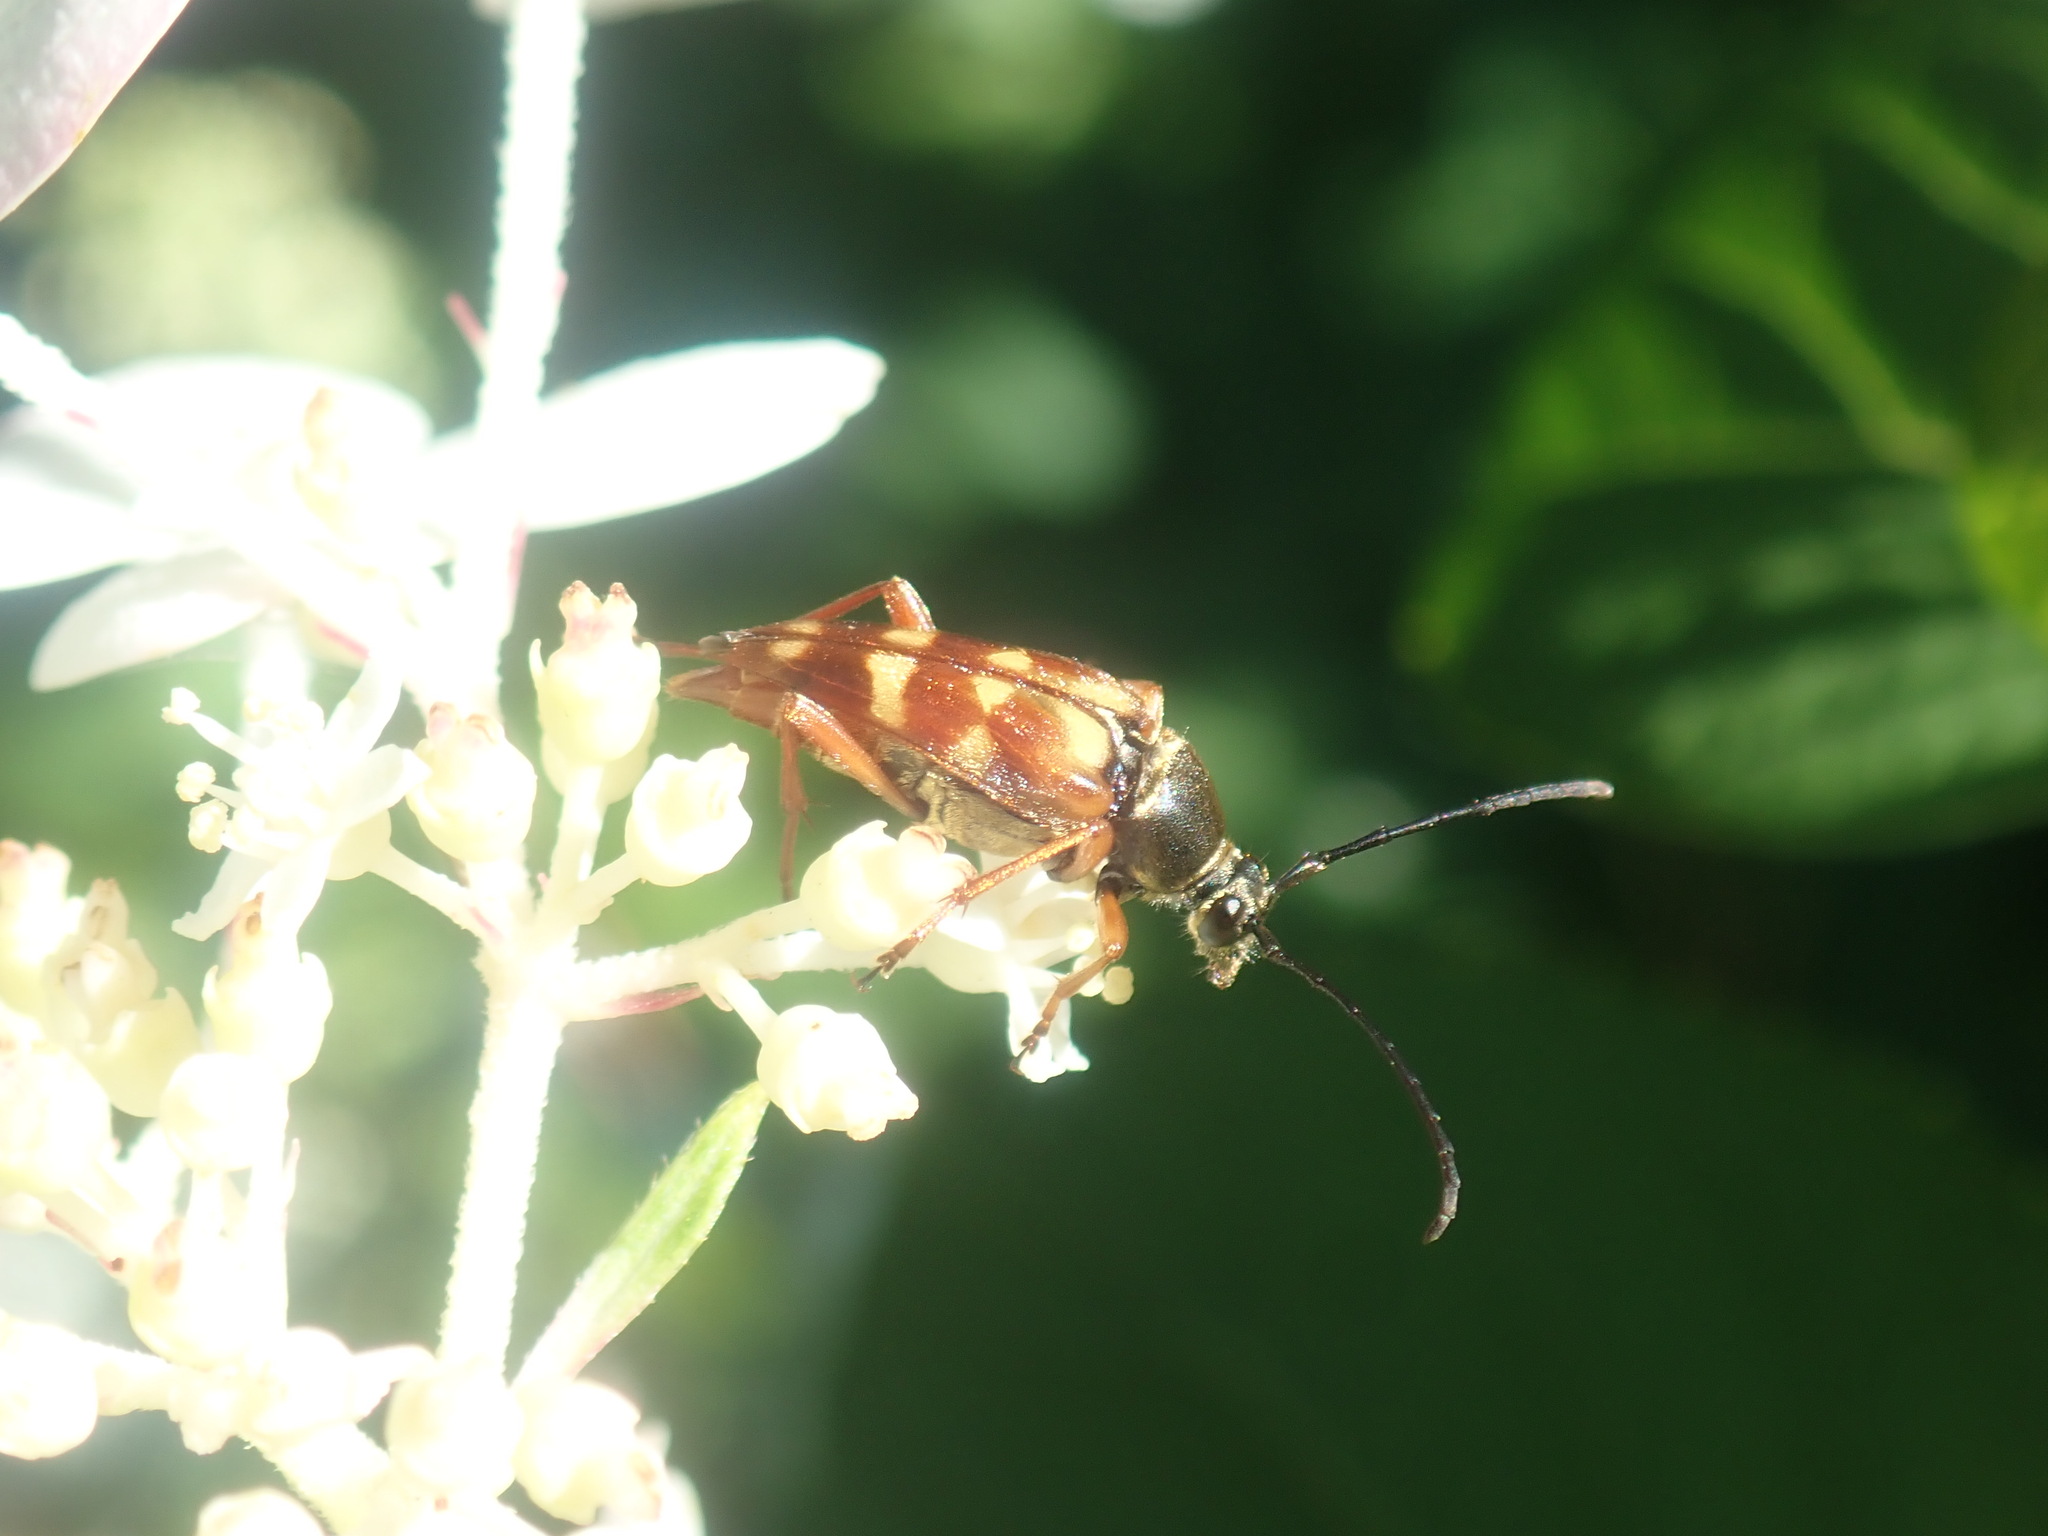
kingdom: Animalia
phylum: Arthropoda
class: Insecta
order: Coleoptera
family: Cerambycidae
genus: Typocerus
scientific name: Typocerus velutinus
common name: Banded longhorn beetle
